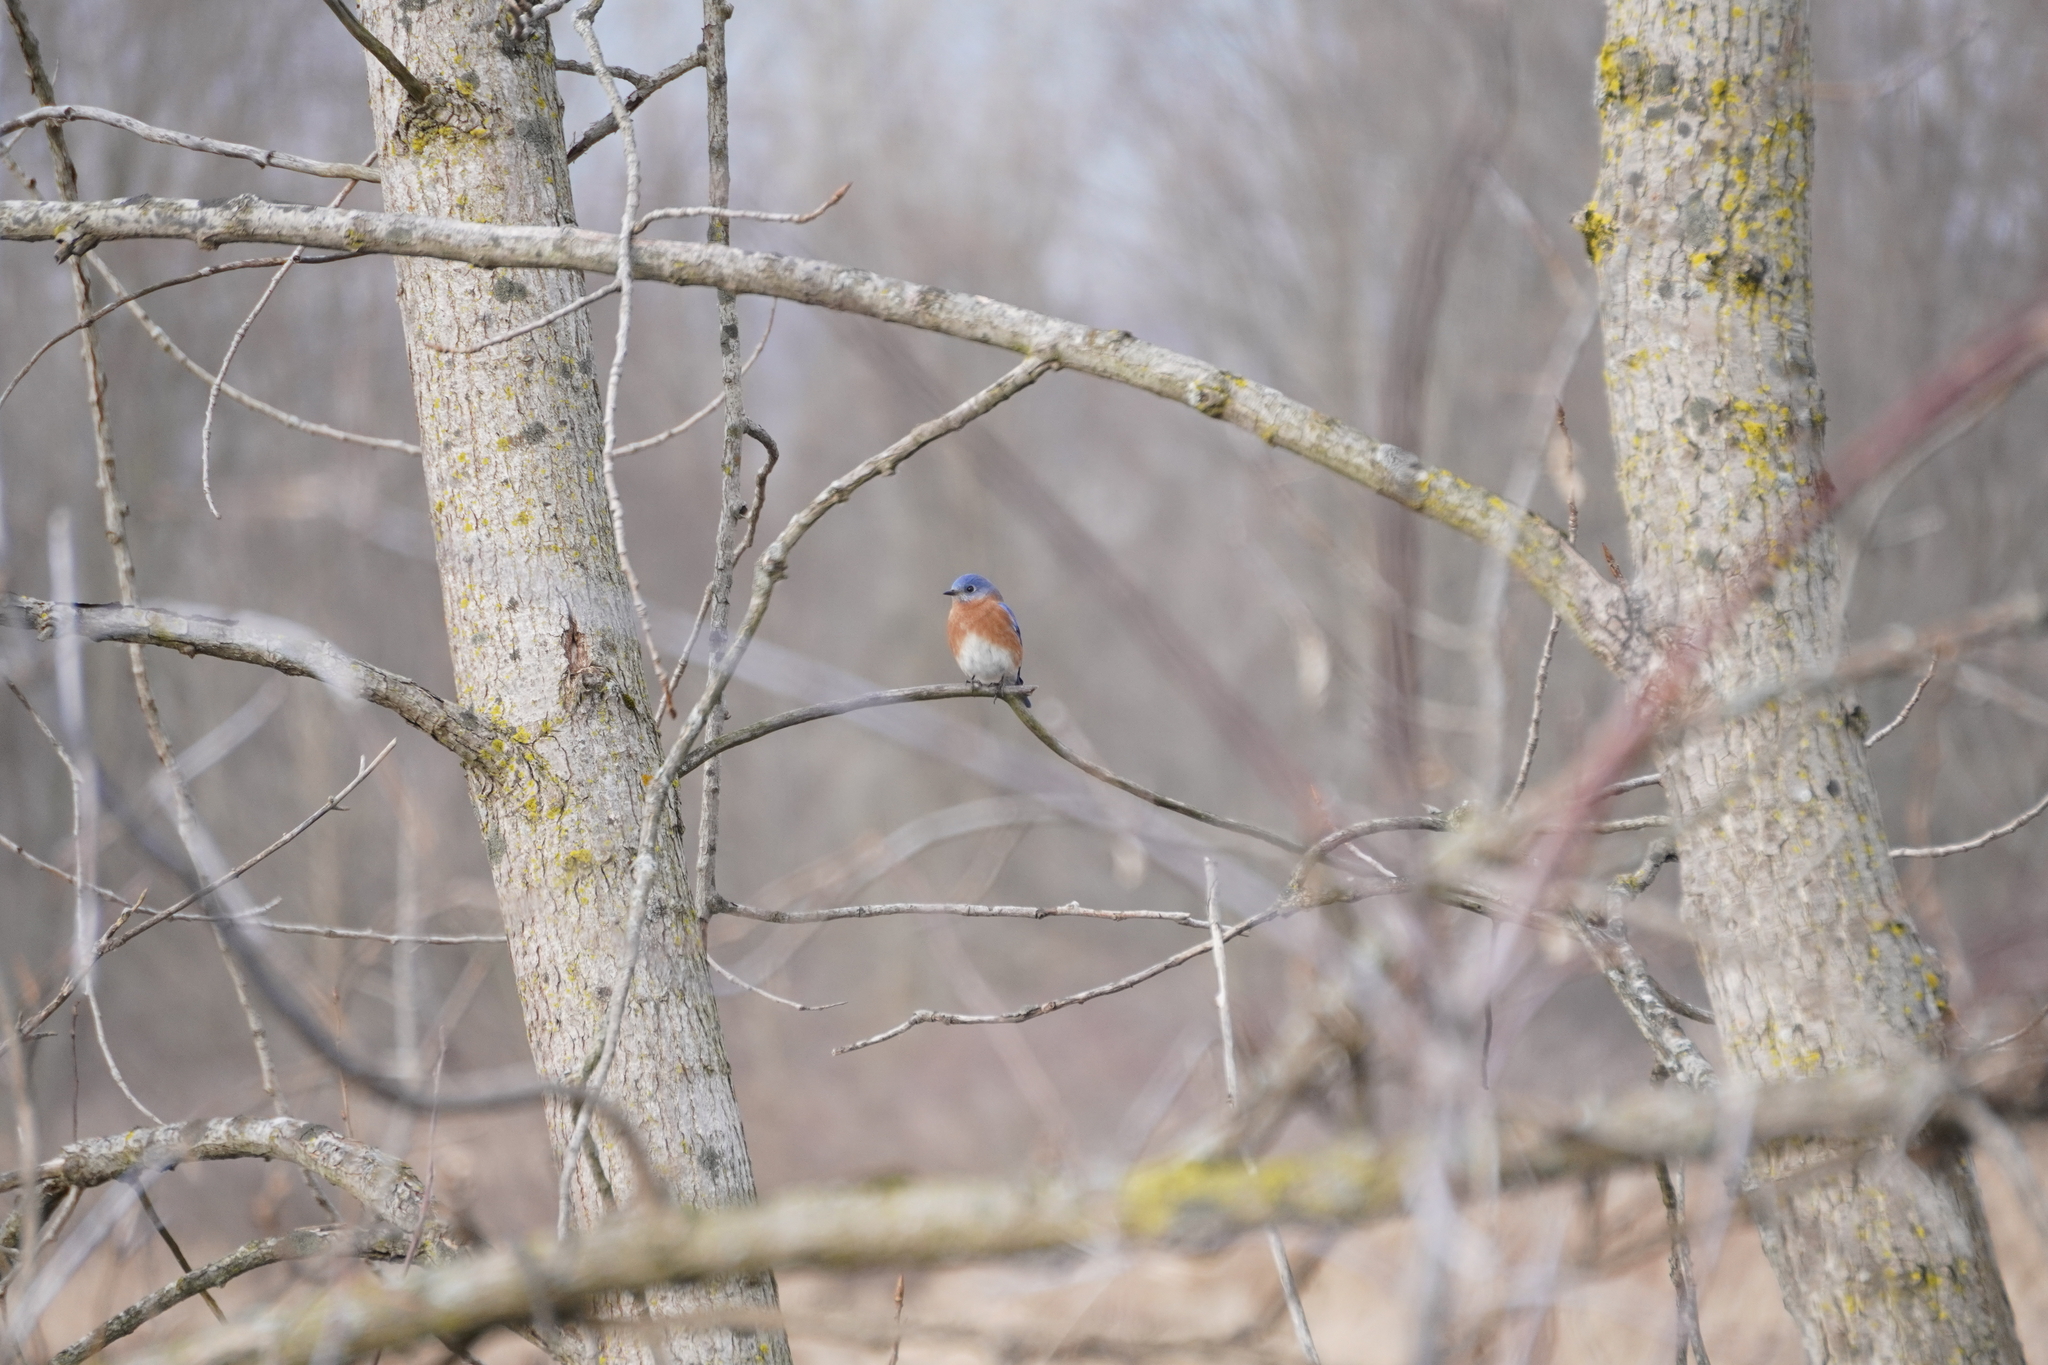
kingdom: Animalia
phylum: Chordata
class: Aves
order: Passeriformes
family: Turdidae
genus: Sialia
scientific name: Sialia sialis
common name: Eastern bluebird
